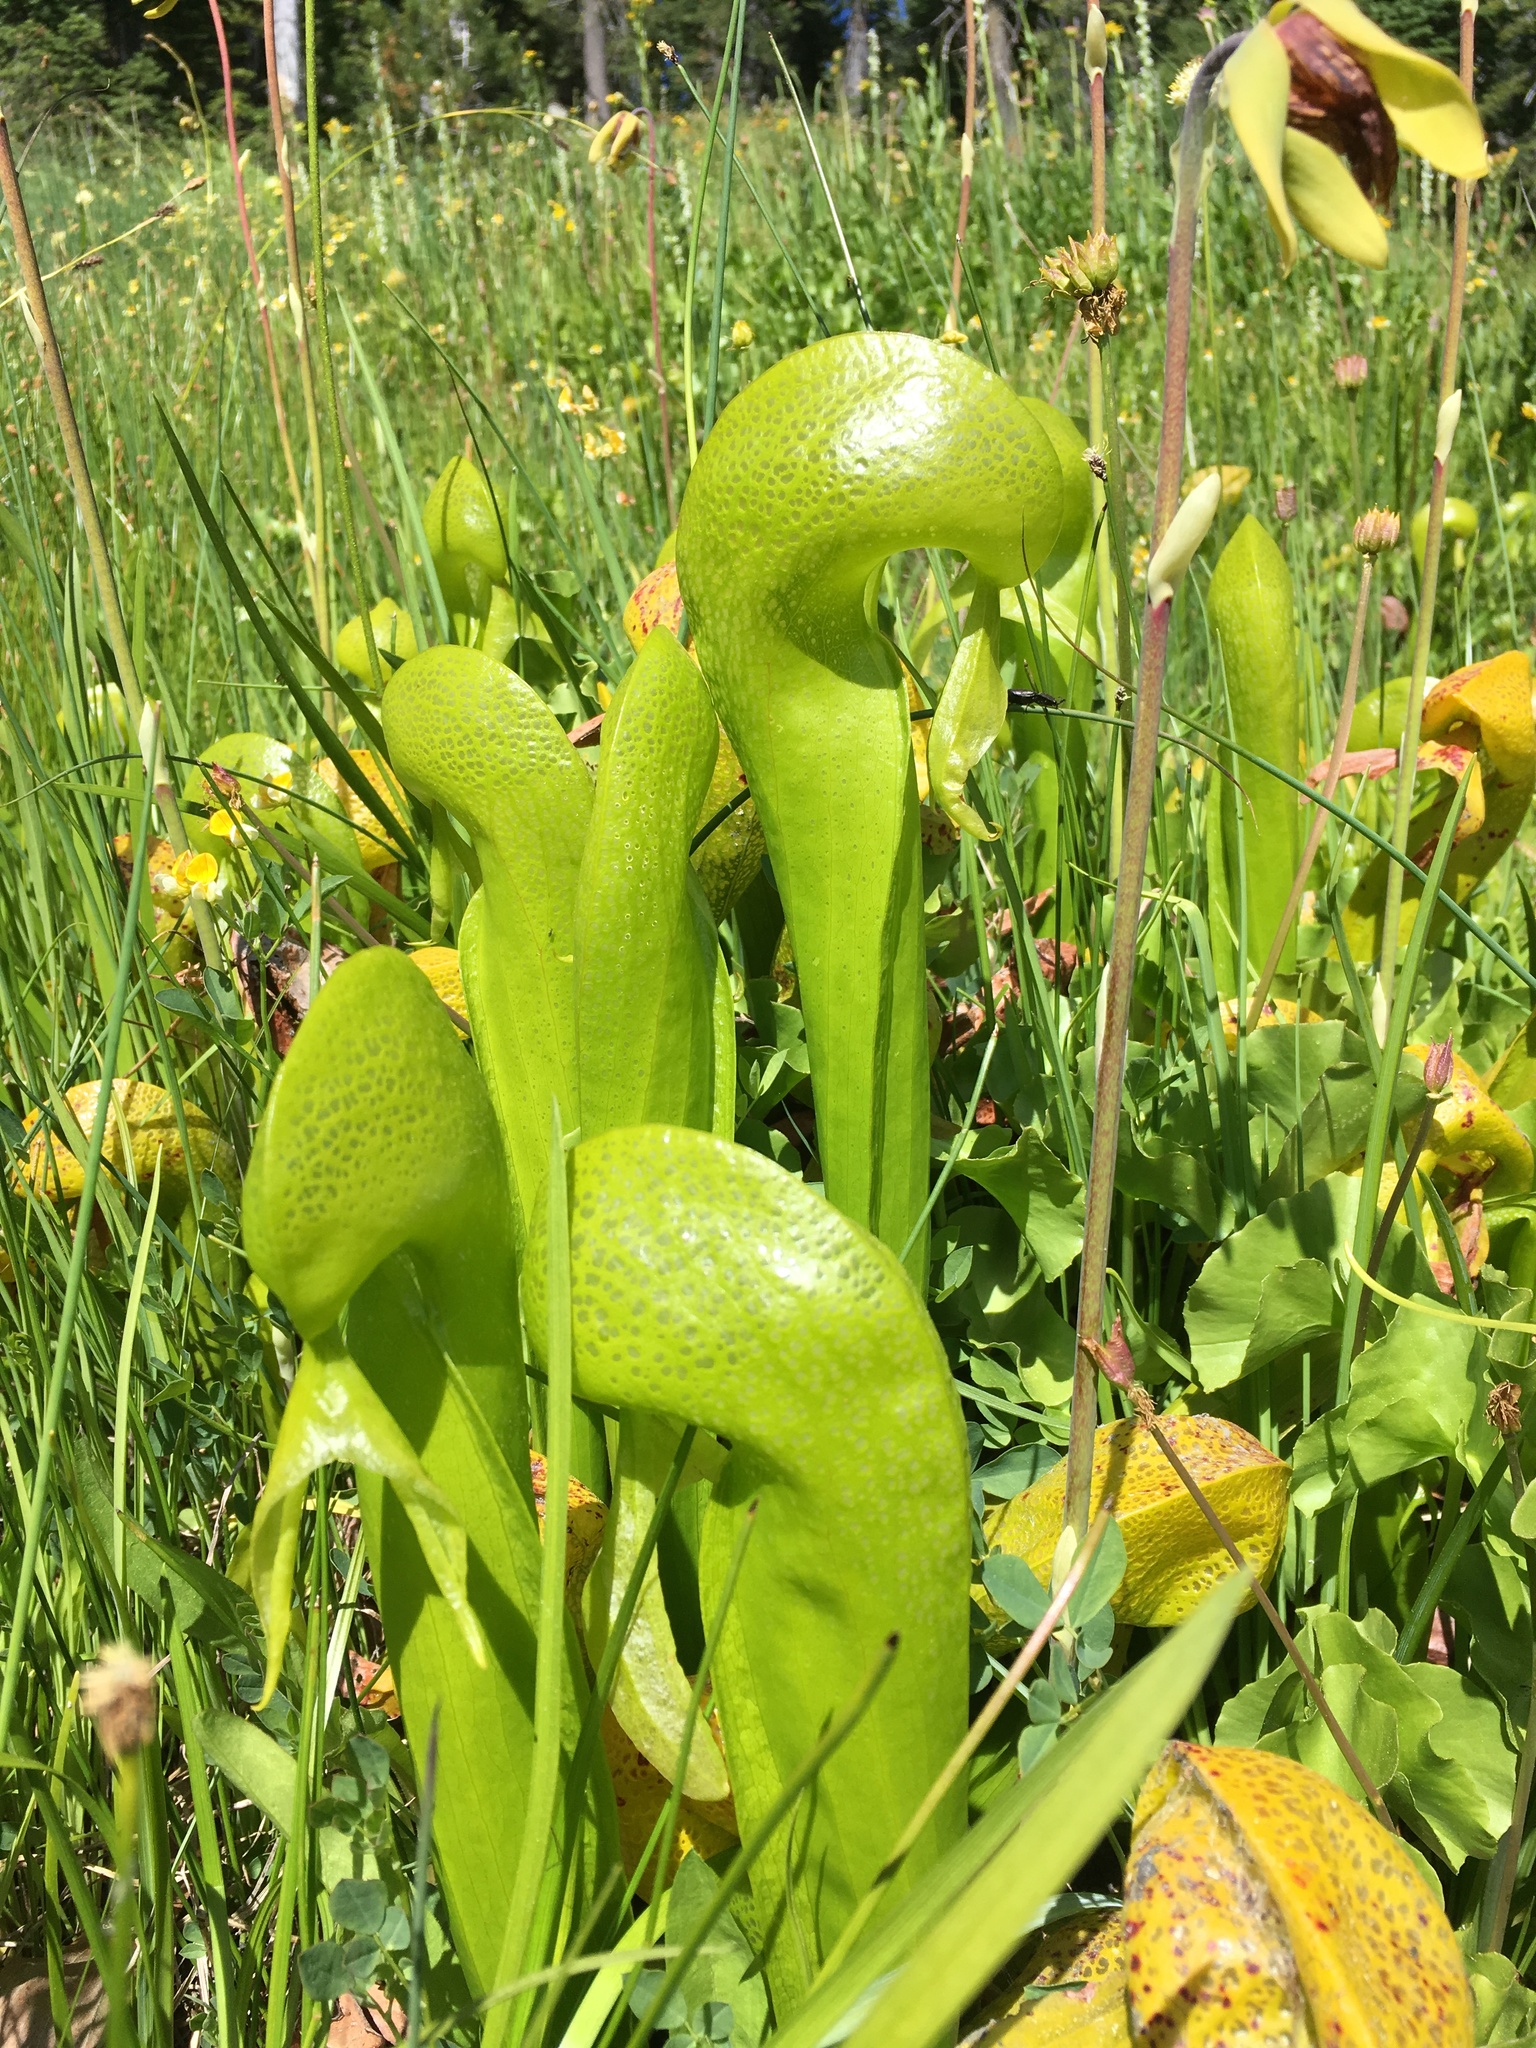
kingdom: Plantae
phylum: Tracheophyta
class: Magnoliopsida
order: Ericales
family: Sarraceniaceae
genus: Darlingtonia
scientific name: Darlingtonia californica
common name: California pitcher plant
